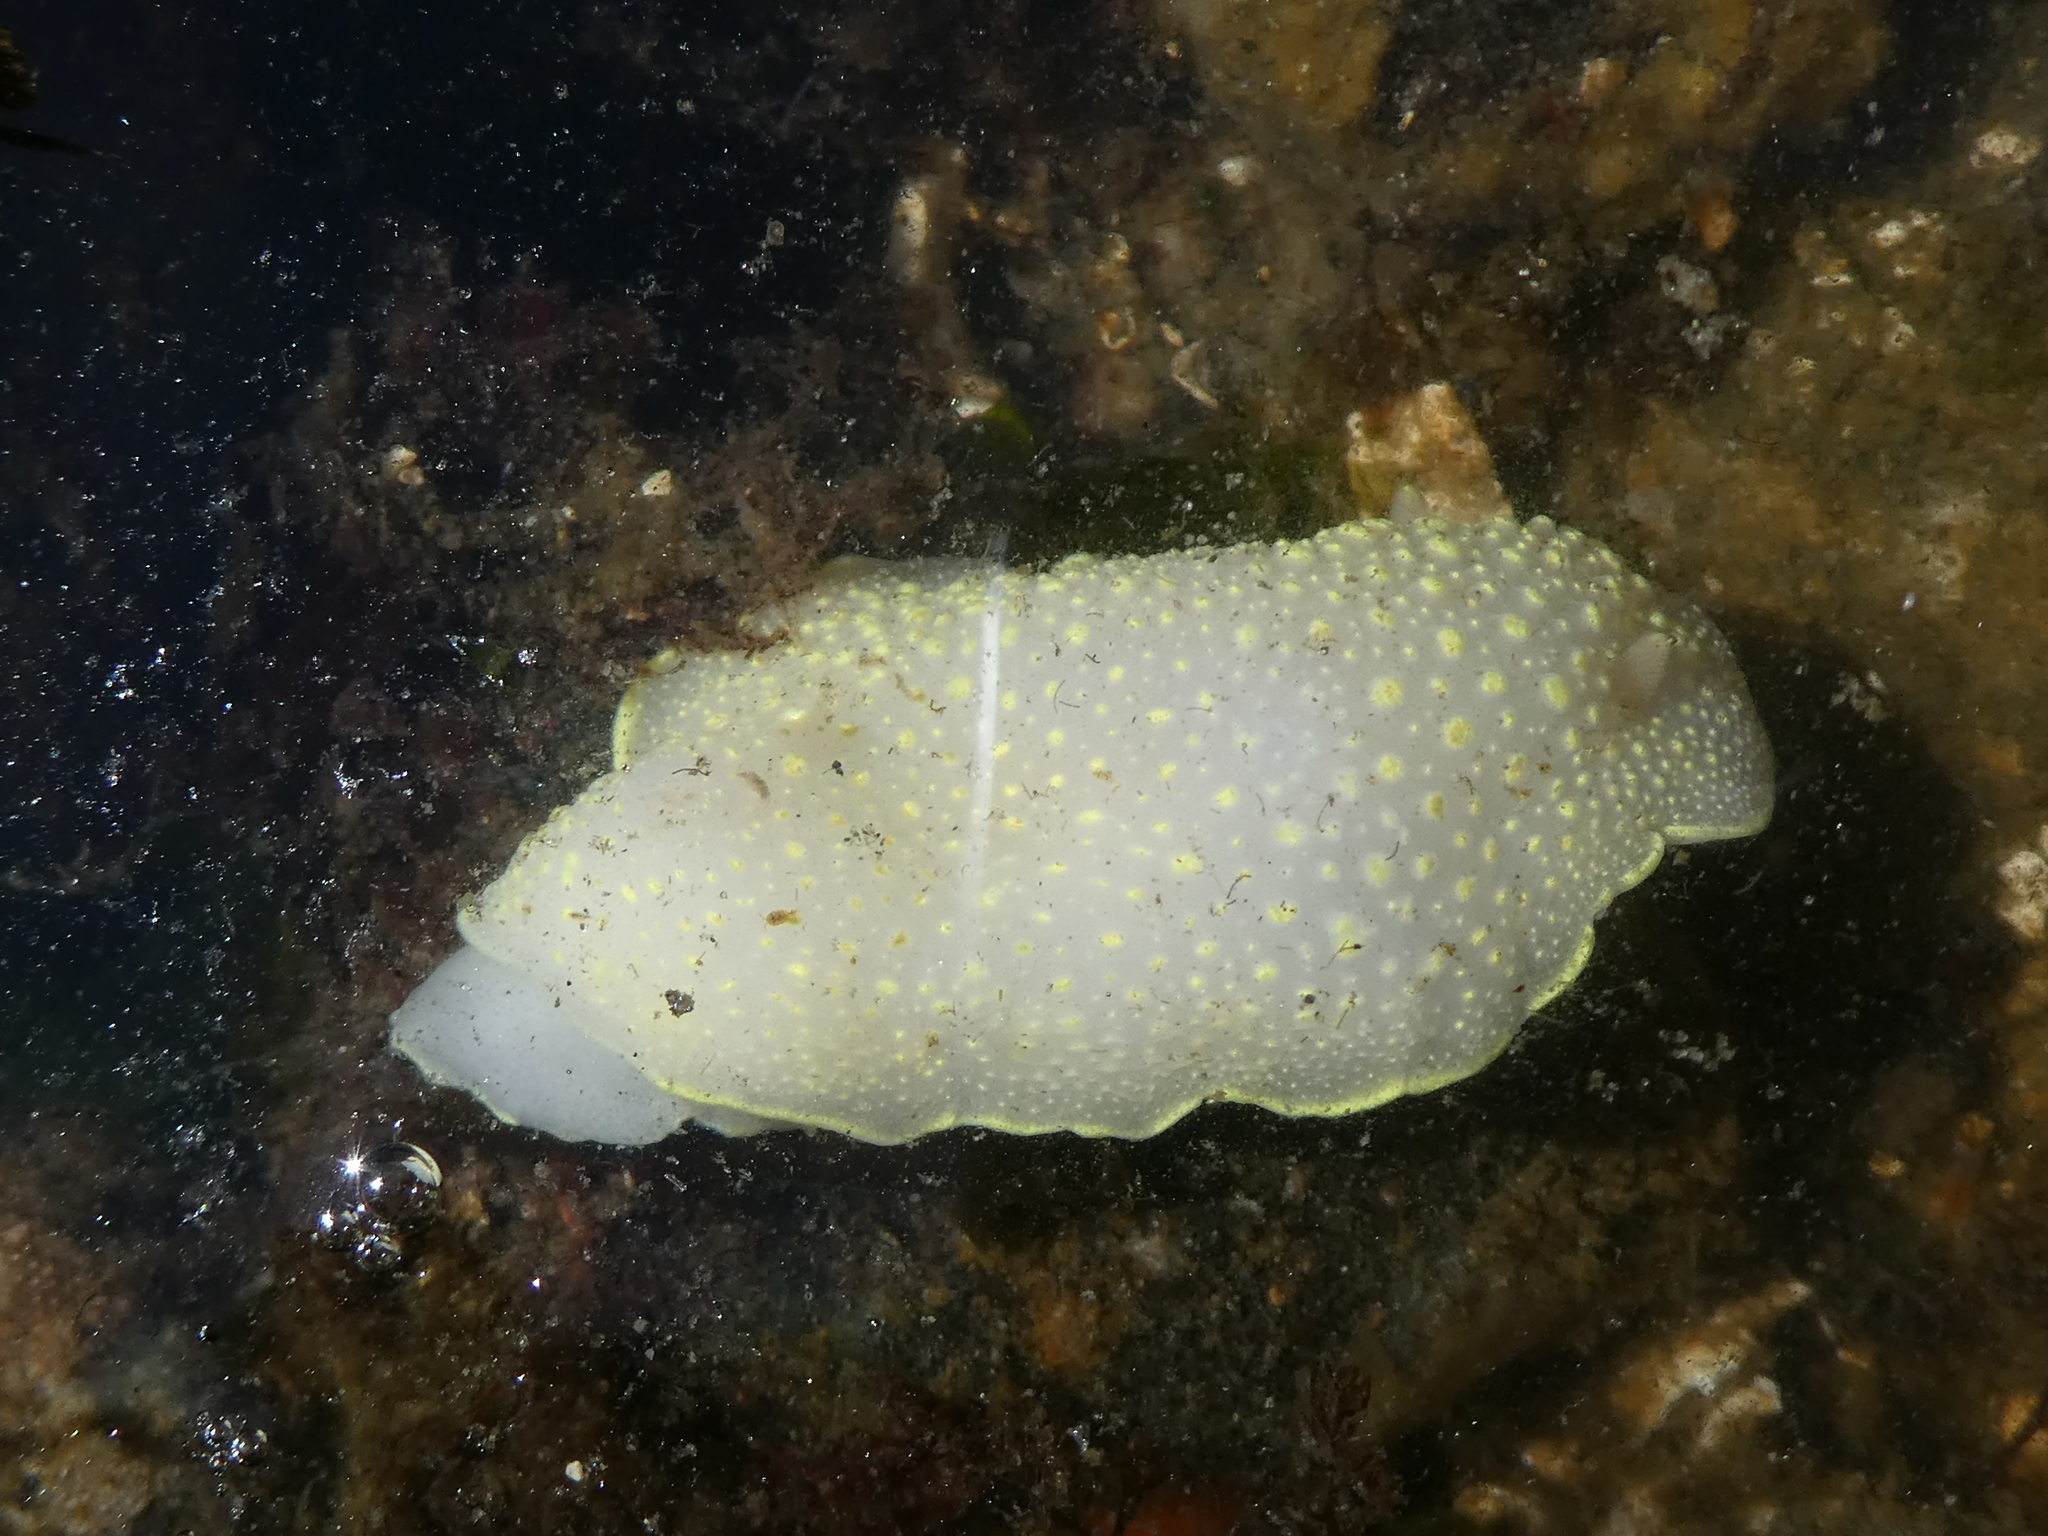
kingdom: Animalia
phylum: Mollusca
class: Gastropoda
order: Nudibranchia
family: Cadlinidae
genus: Cadlina
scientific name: Cadlina luteomarginata
